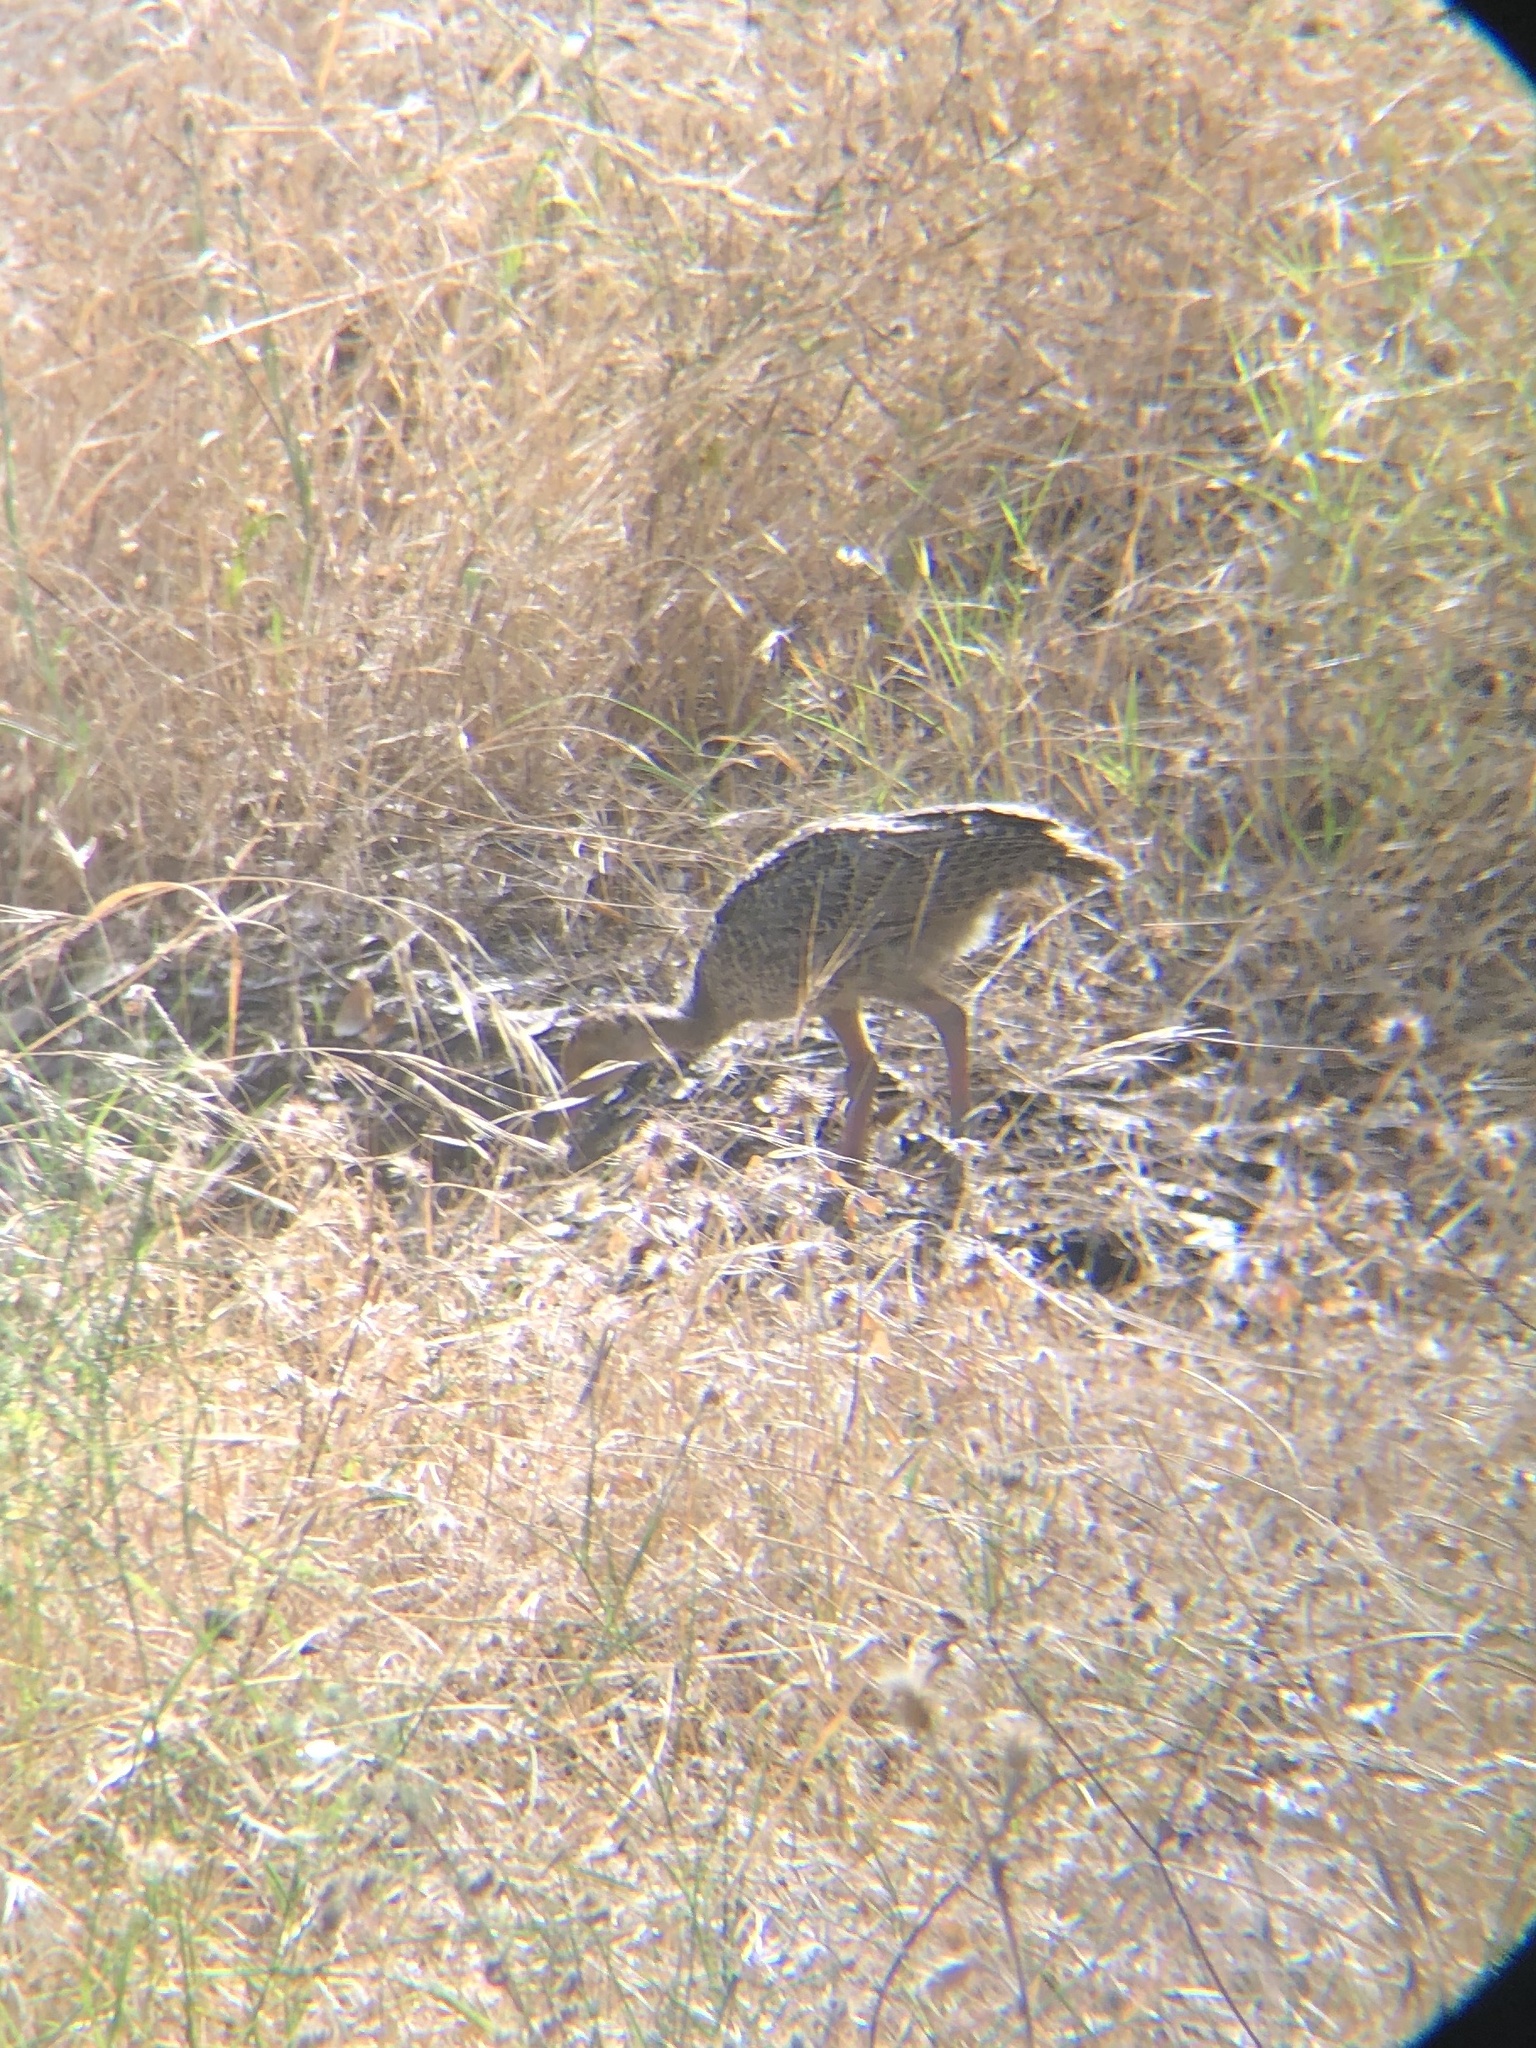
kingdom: Animalia
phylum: Chordata
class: Aves
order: Galliformes
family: Phasianidae
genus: Meleagris
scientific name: Meleagris gallopavo
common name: Wild turkey
